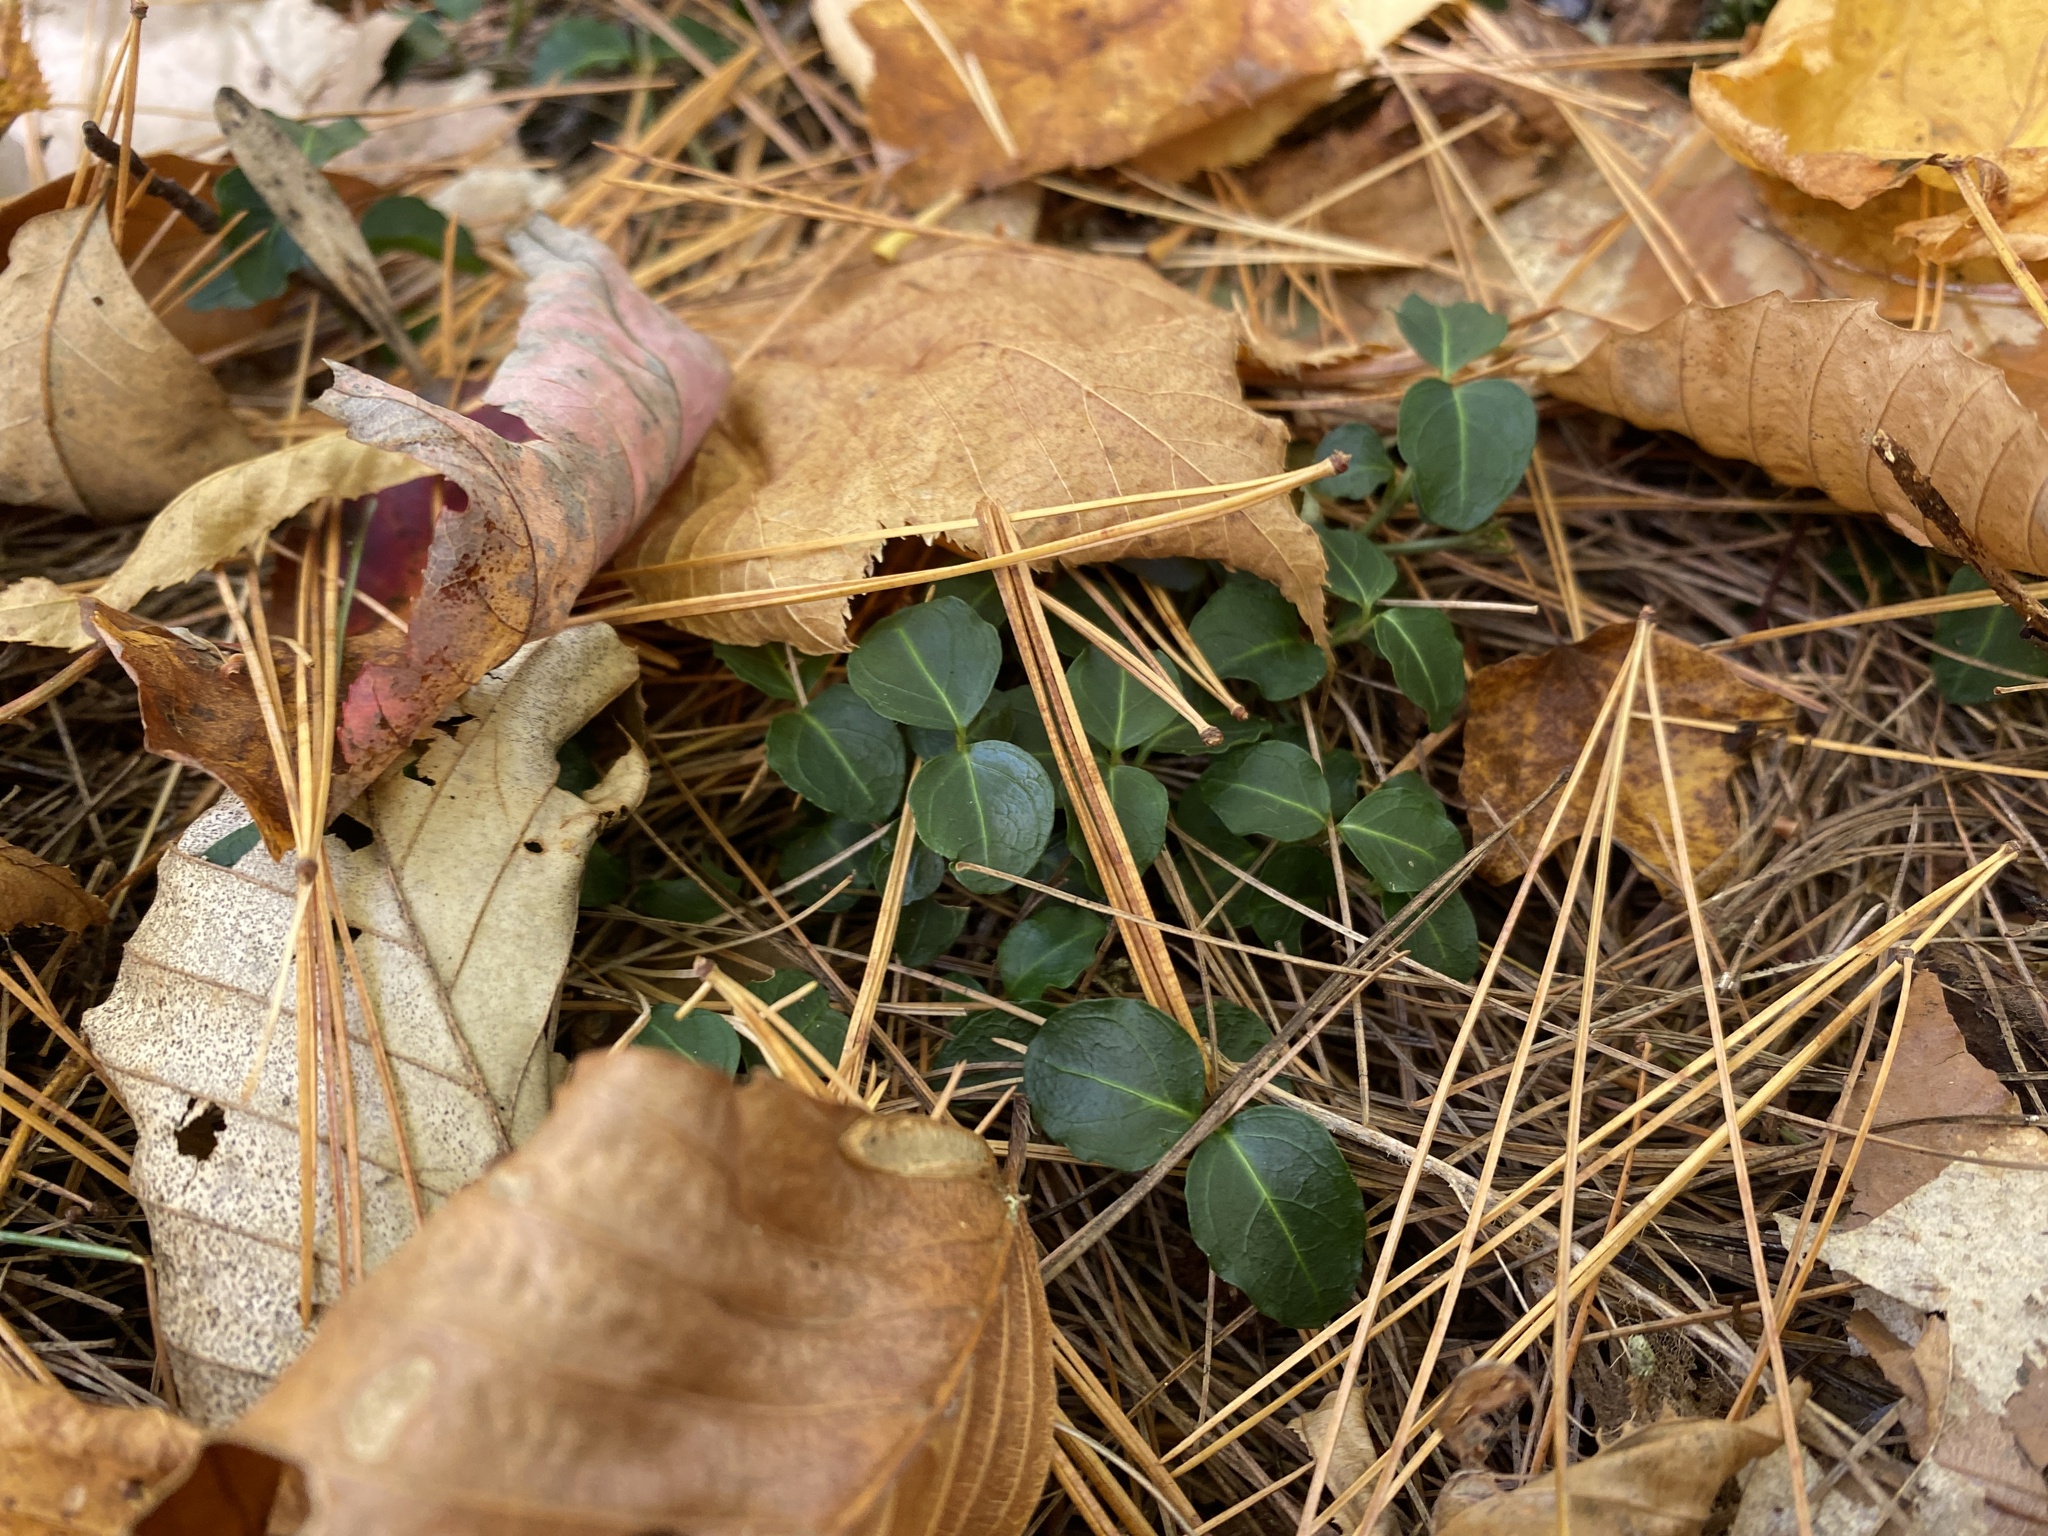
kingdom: Plantae
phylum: Tracheophyta
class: Magnoliopsida
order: Gentianales
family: Rubiaceae
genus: Mitchella
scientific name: Mitchella repens
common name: Partridge-berry
